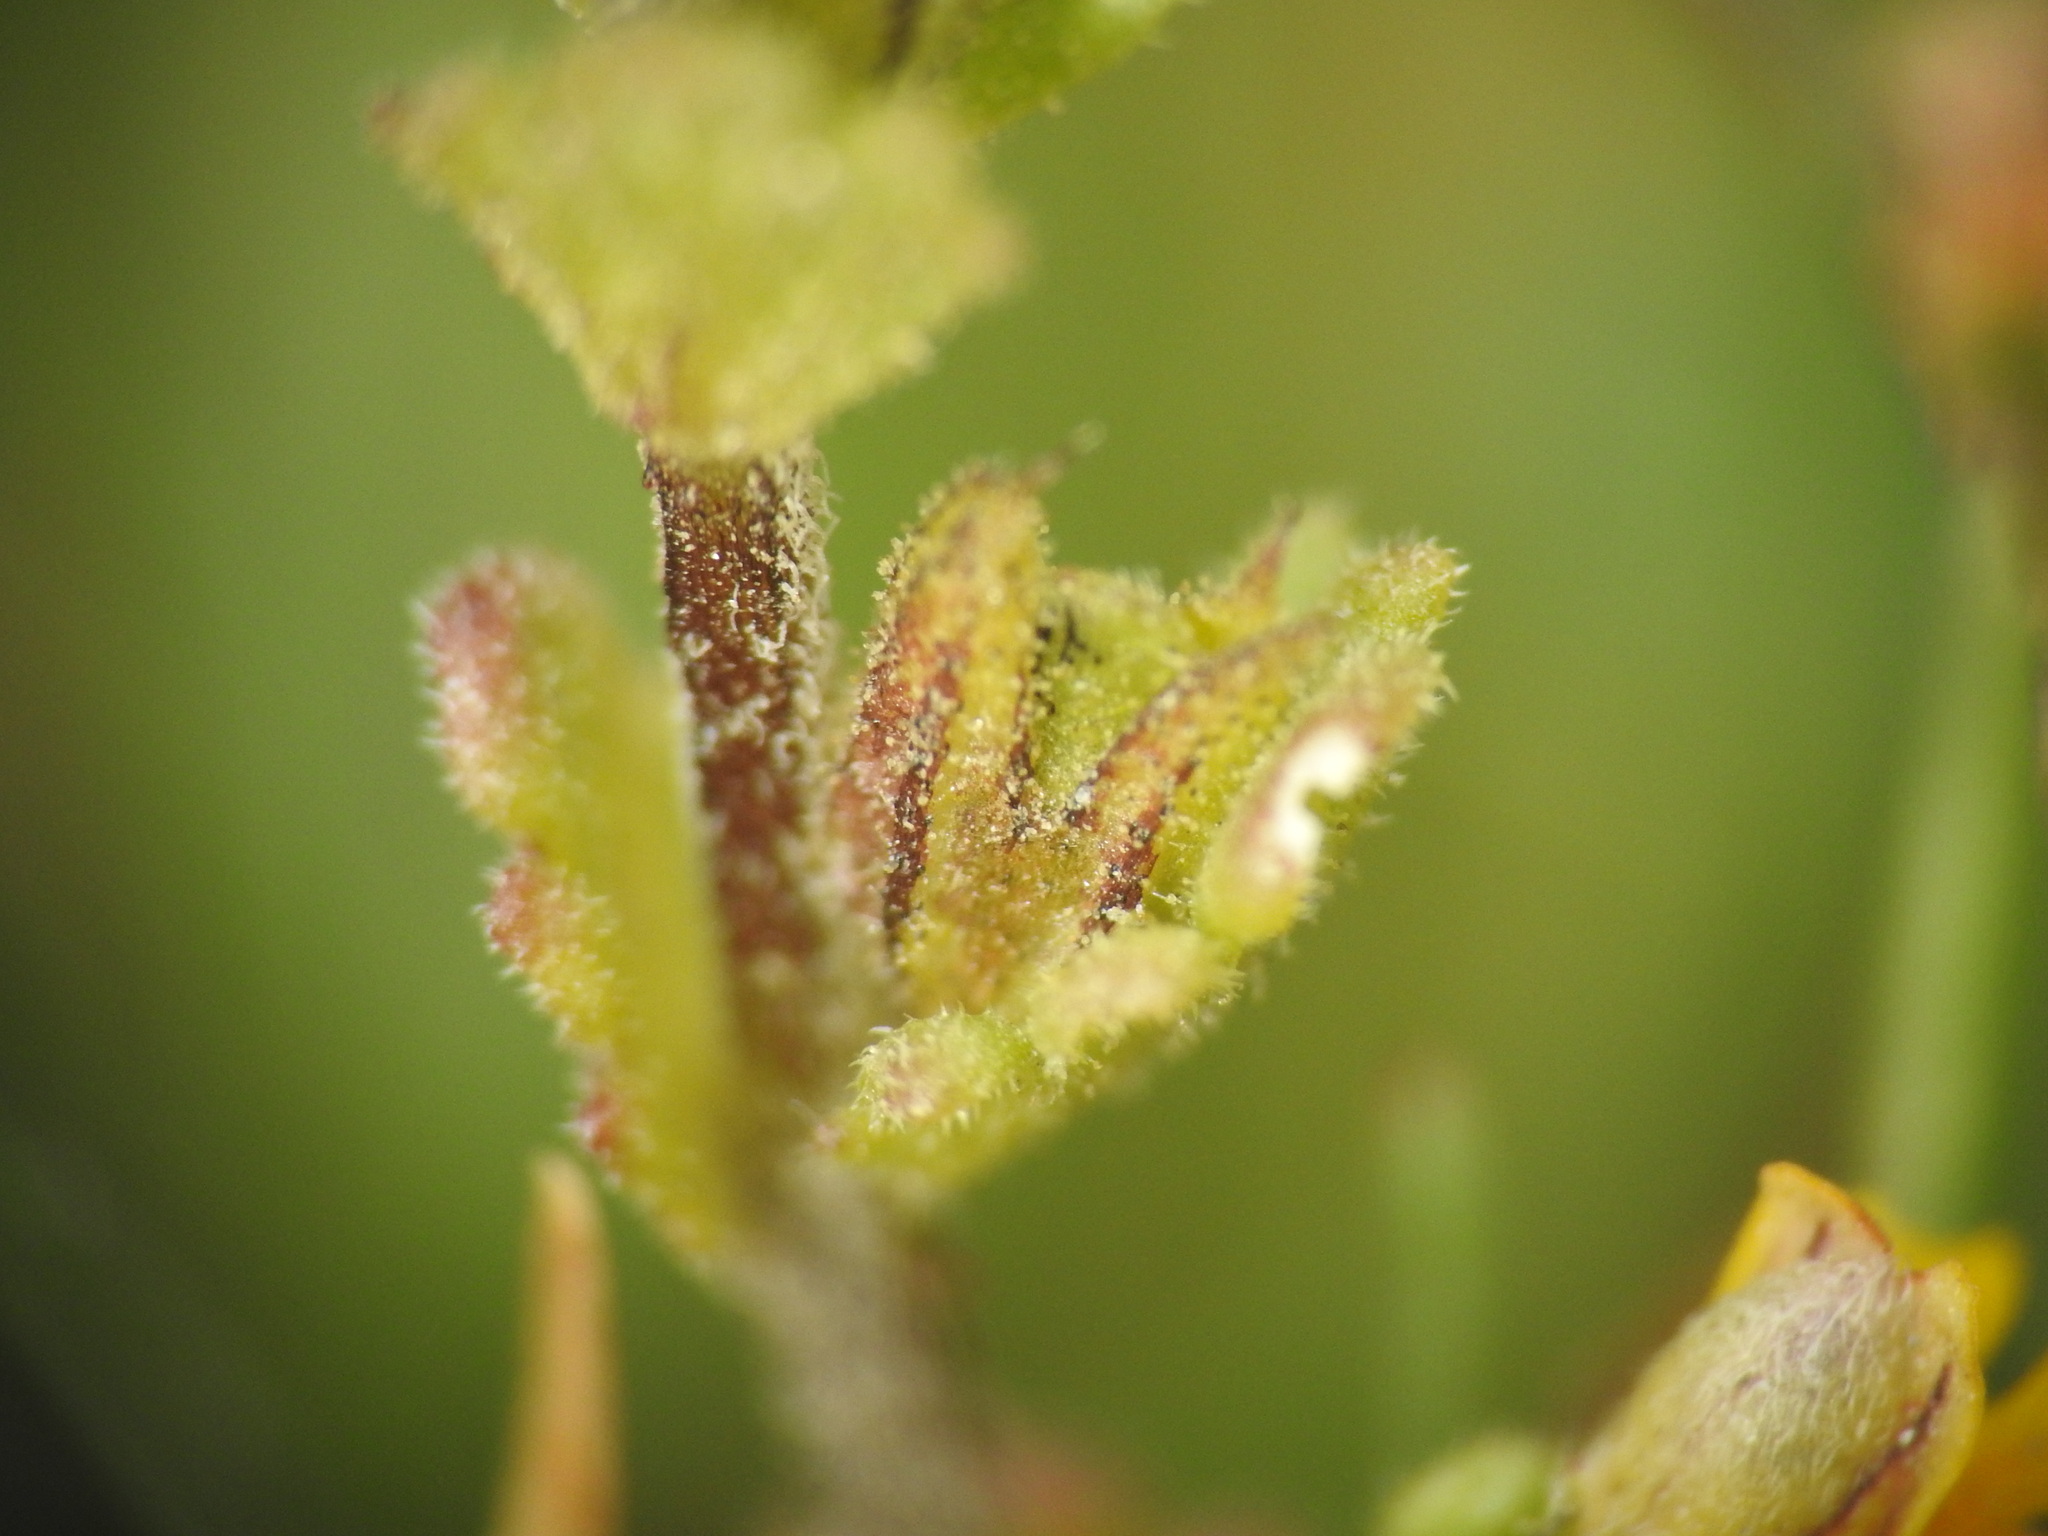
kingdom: Plantae
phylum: Tracheophyta
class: Magnoliopsida
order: Lamiales
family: Orobanchaceae
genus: Euphrasia
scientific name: Euphrasia minima
